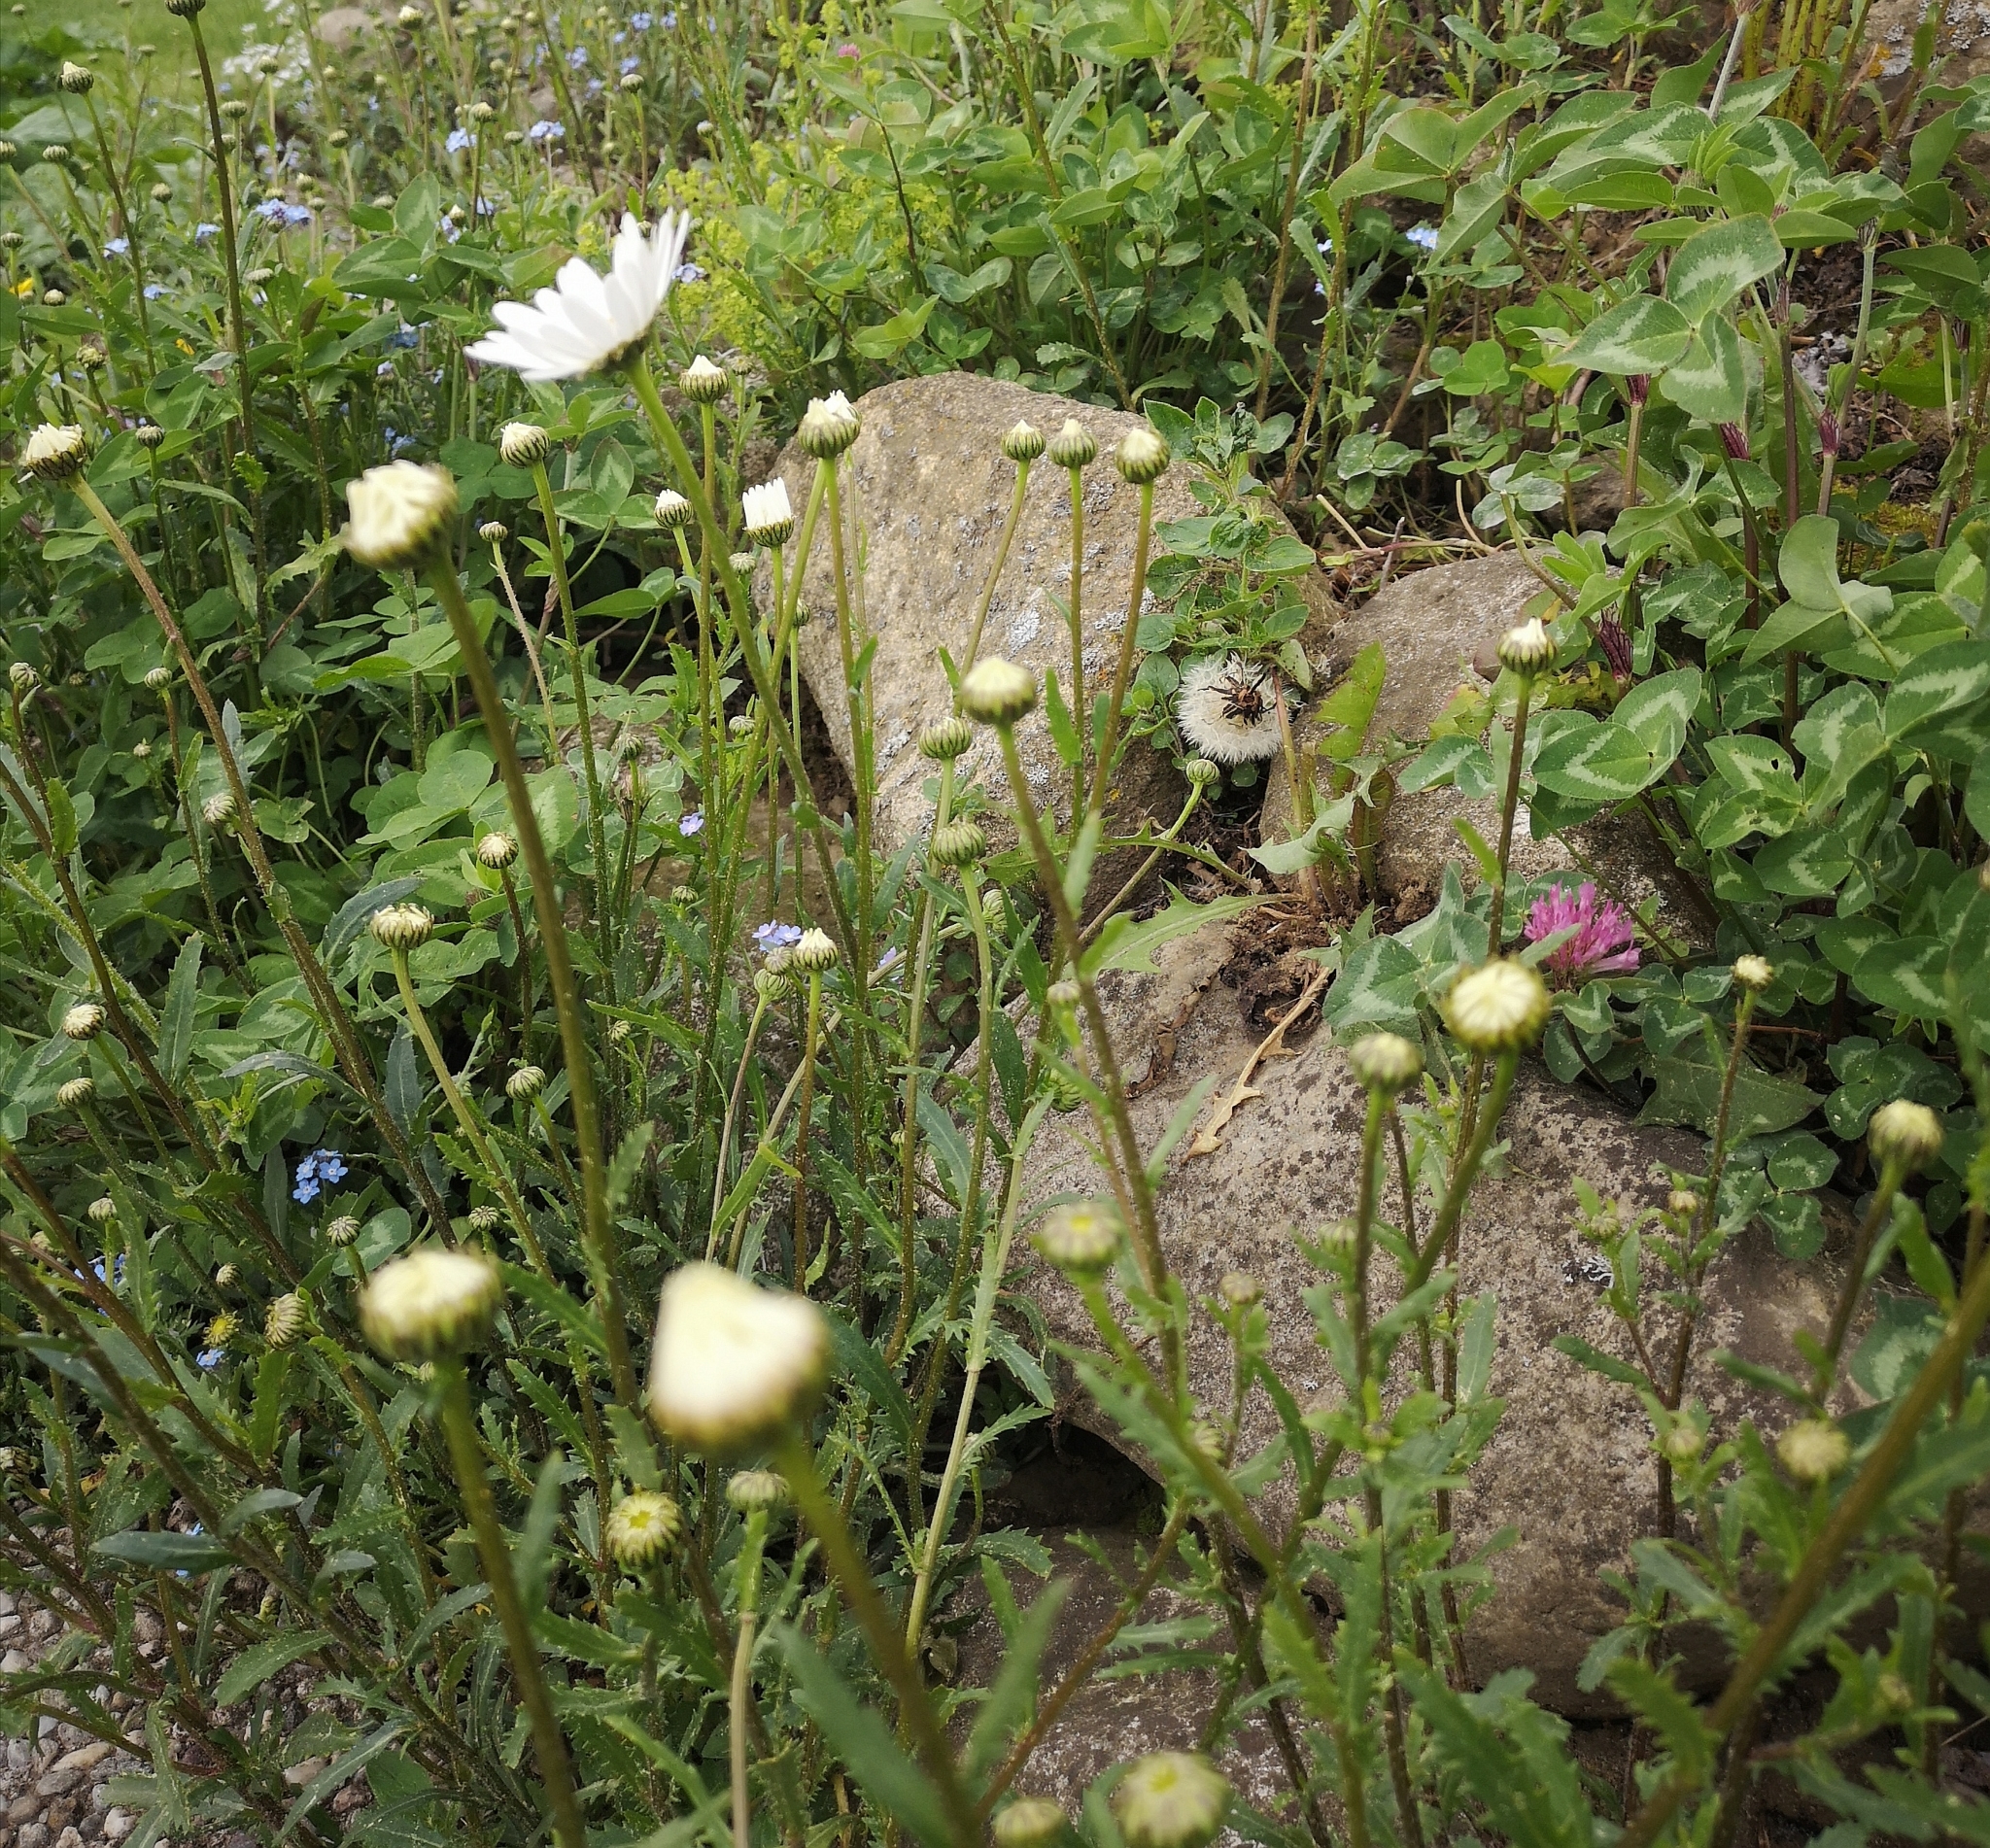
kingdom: Plantae
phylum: Tracheophyta
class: Magnoliopsida
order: Asterales
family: Asteraceae
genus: Leucanthemum
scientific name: Leucanthemum vulgare
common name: Oxeye daisy
